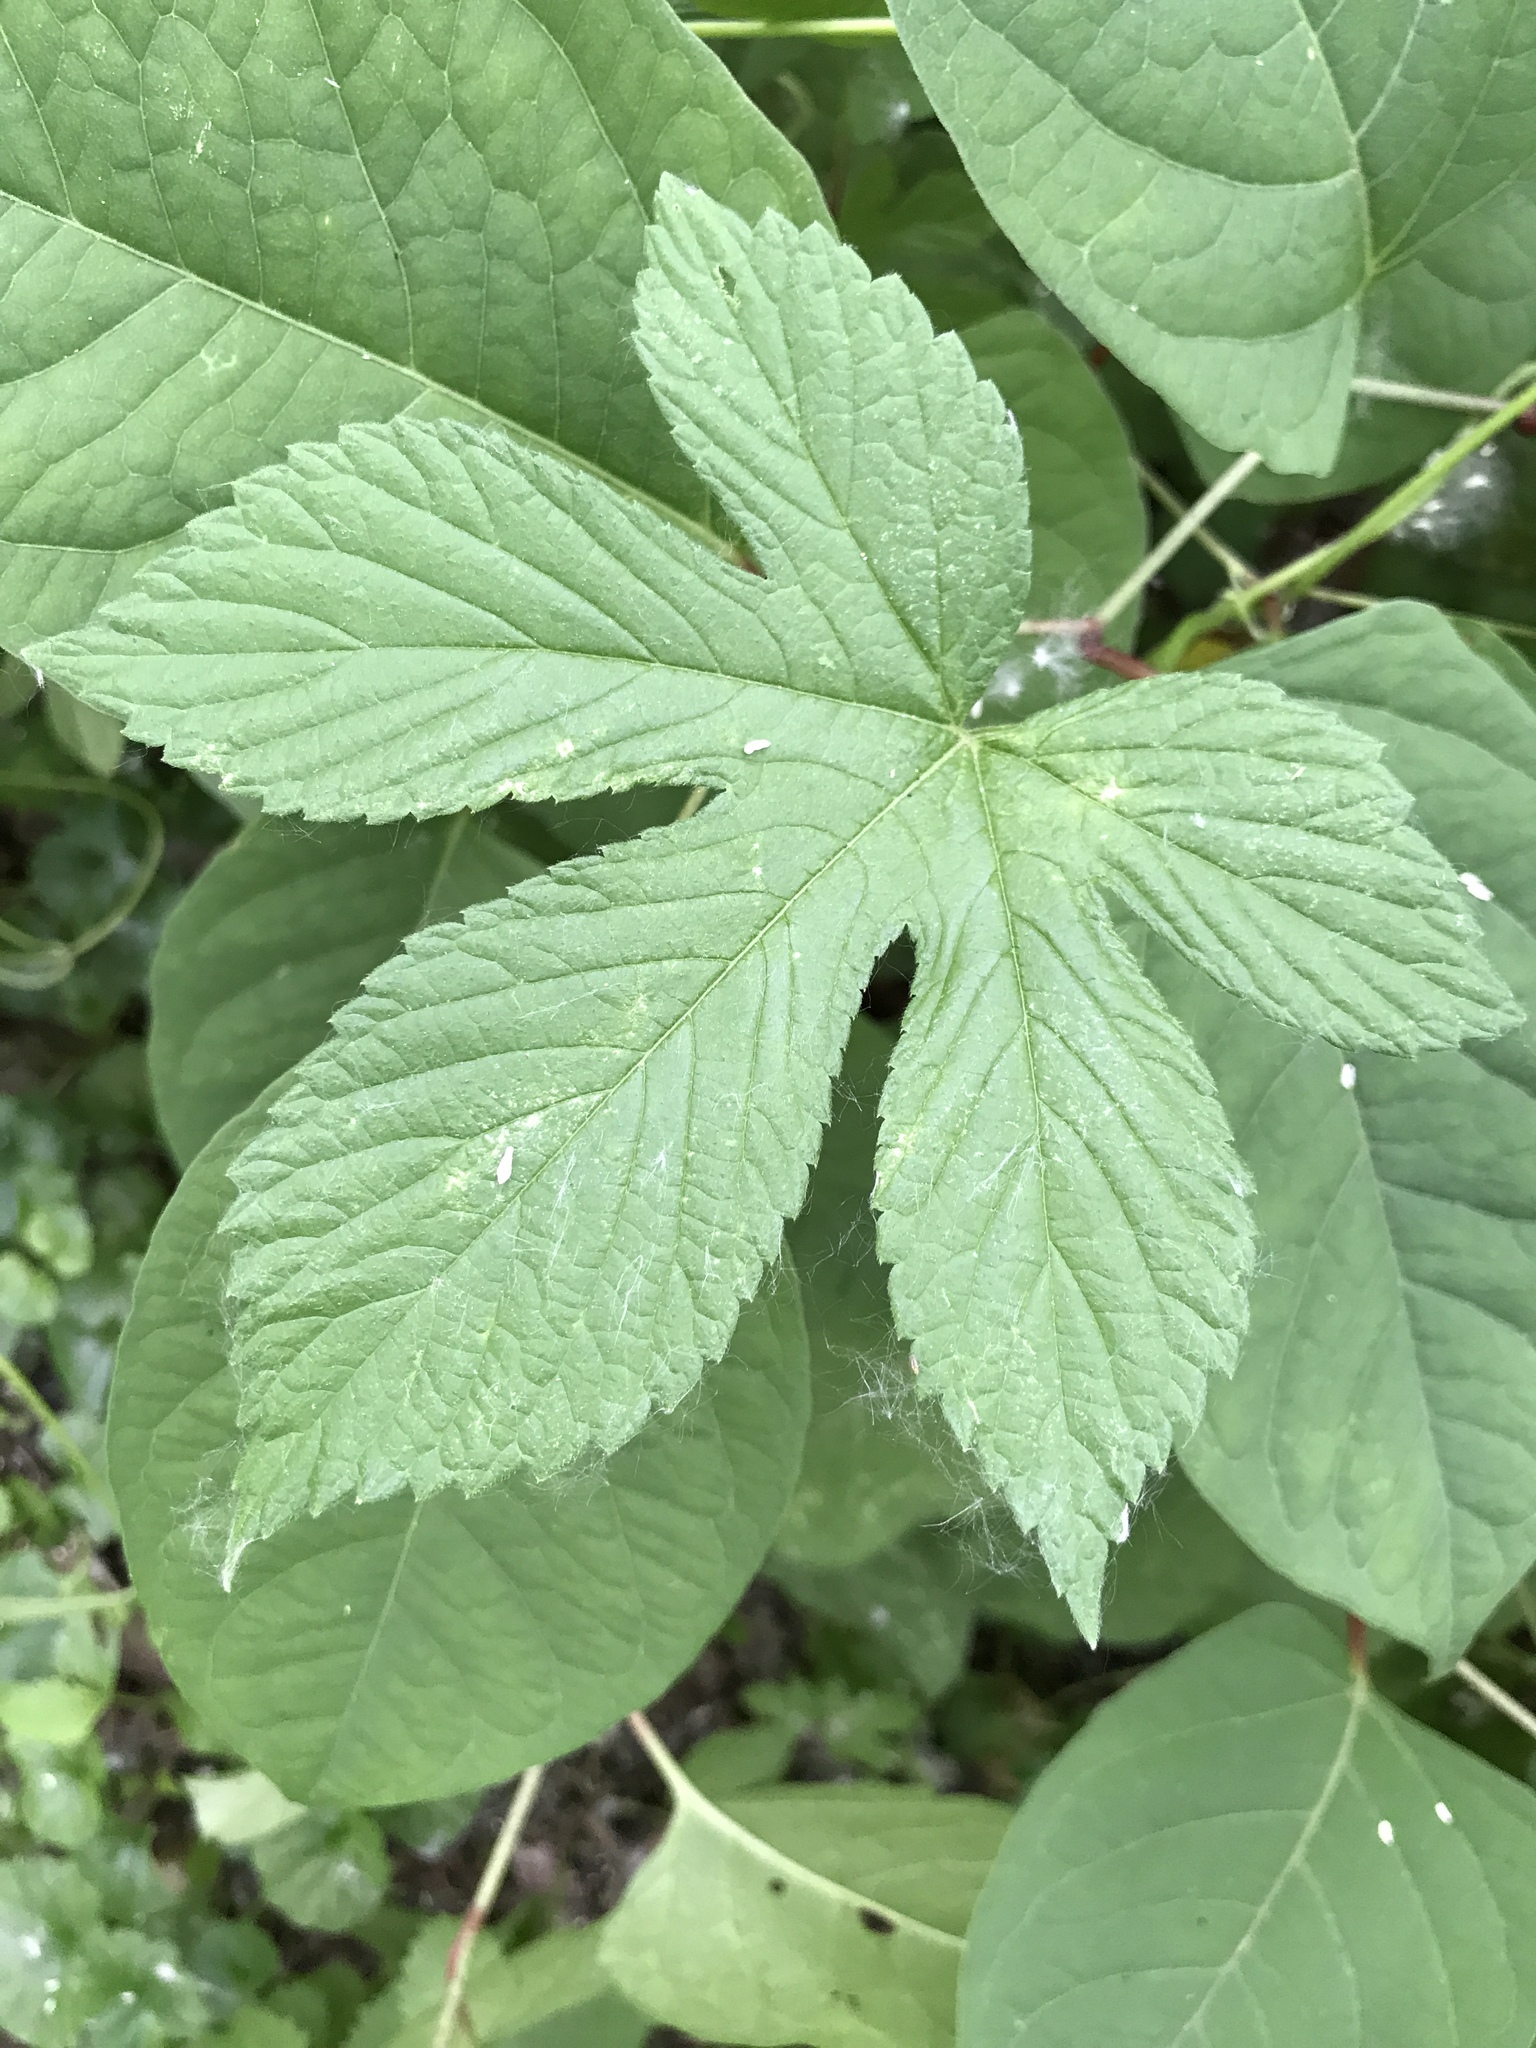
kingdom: Plantae
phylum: Tracheophyta
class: Magnoliopsida
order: Rosales
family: Cannabaceae
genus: Humulus
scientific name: Humulus scandens
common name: Japanese hop
